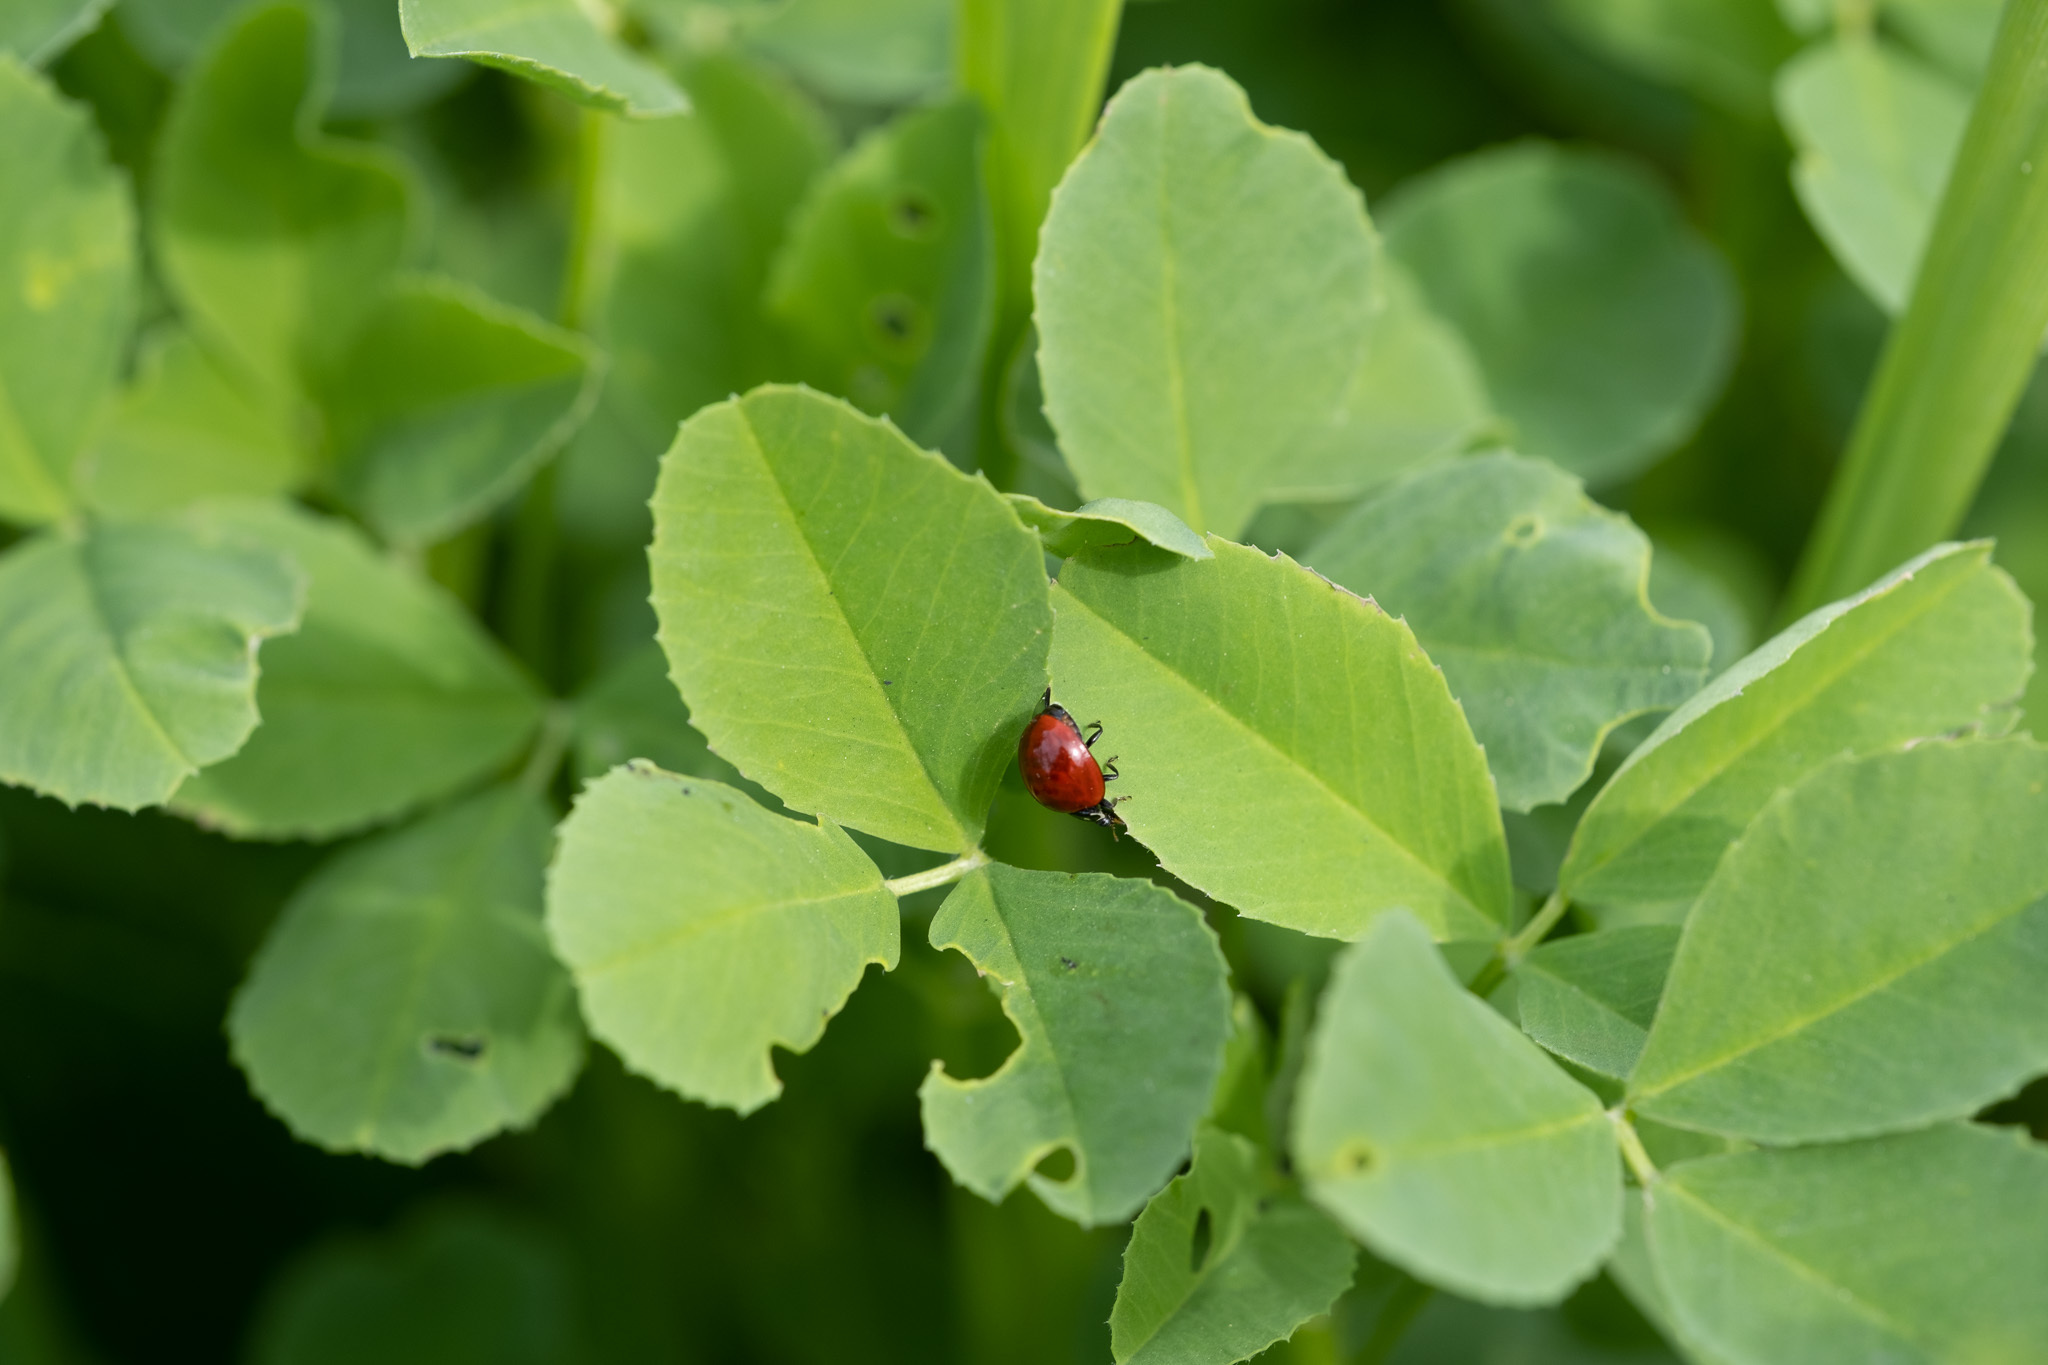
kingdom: Animalia
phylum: Arthropoda
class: Insecta
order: Coleoptera
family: Coccinellidae
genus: Cycloneda
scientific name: Cycloneda sanguinea
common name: Ladybird beetle
